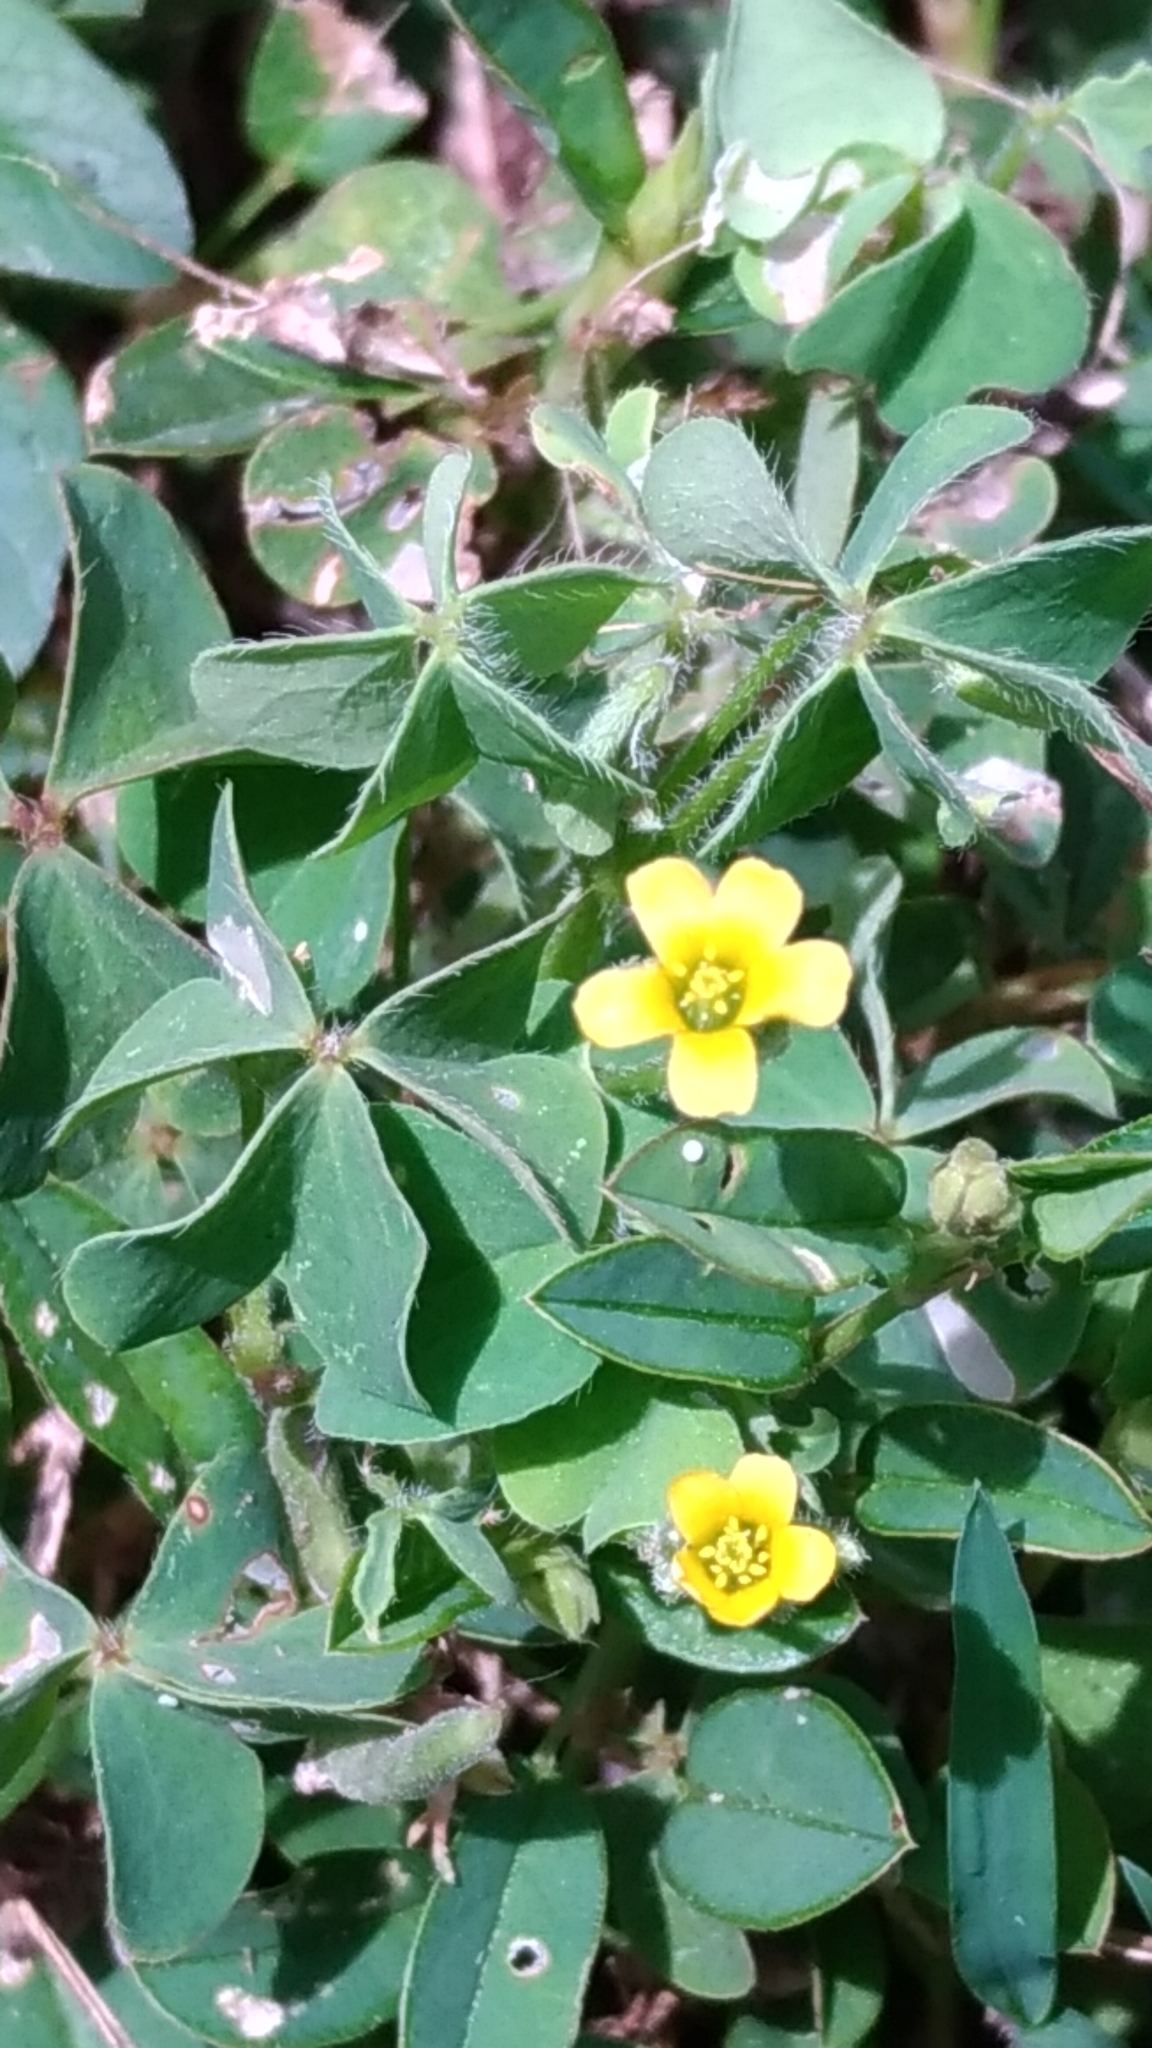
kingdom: Plantae
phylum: Tracheophyta
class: Magnoliopsida
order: Oxalidales
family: Oxalidaceae
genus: Oxalis
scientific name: Oxalis corniculata
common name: Procumbent yellow-sorrel
